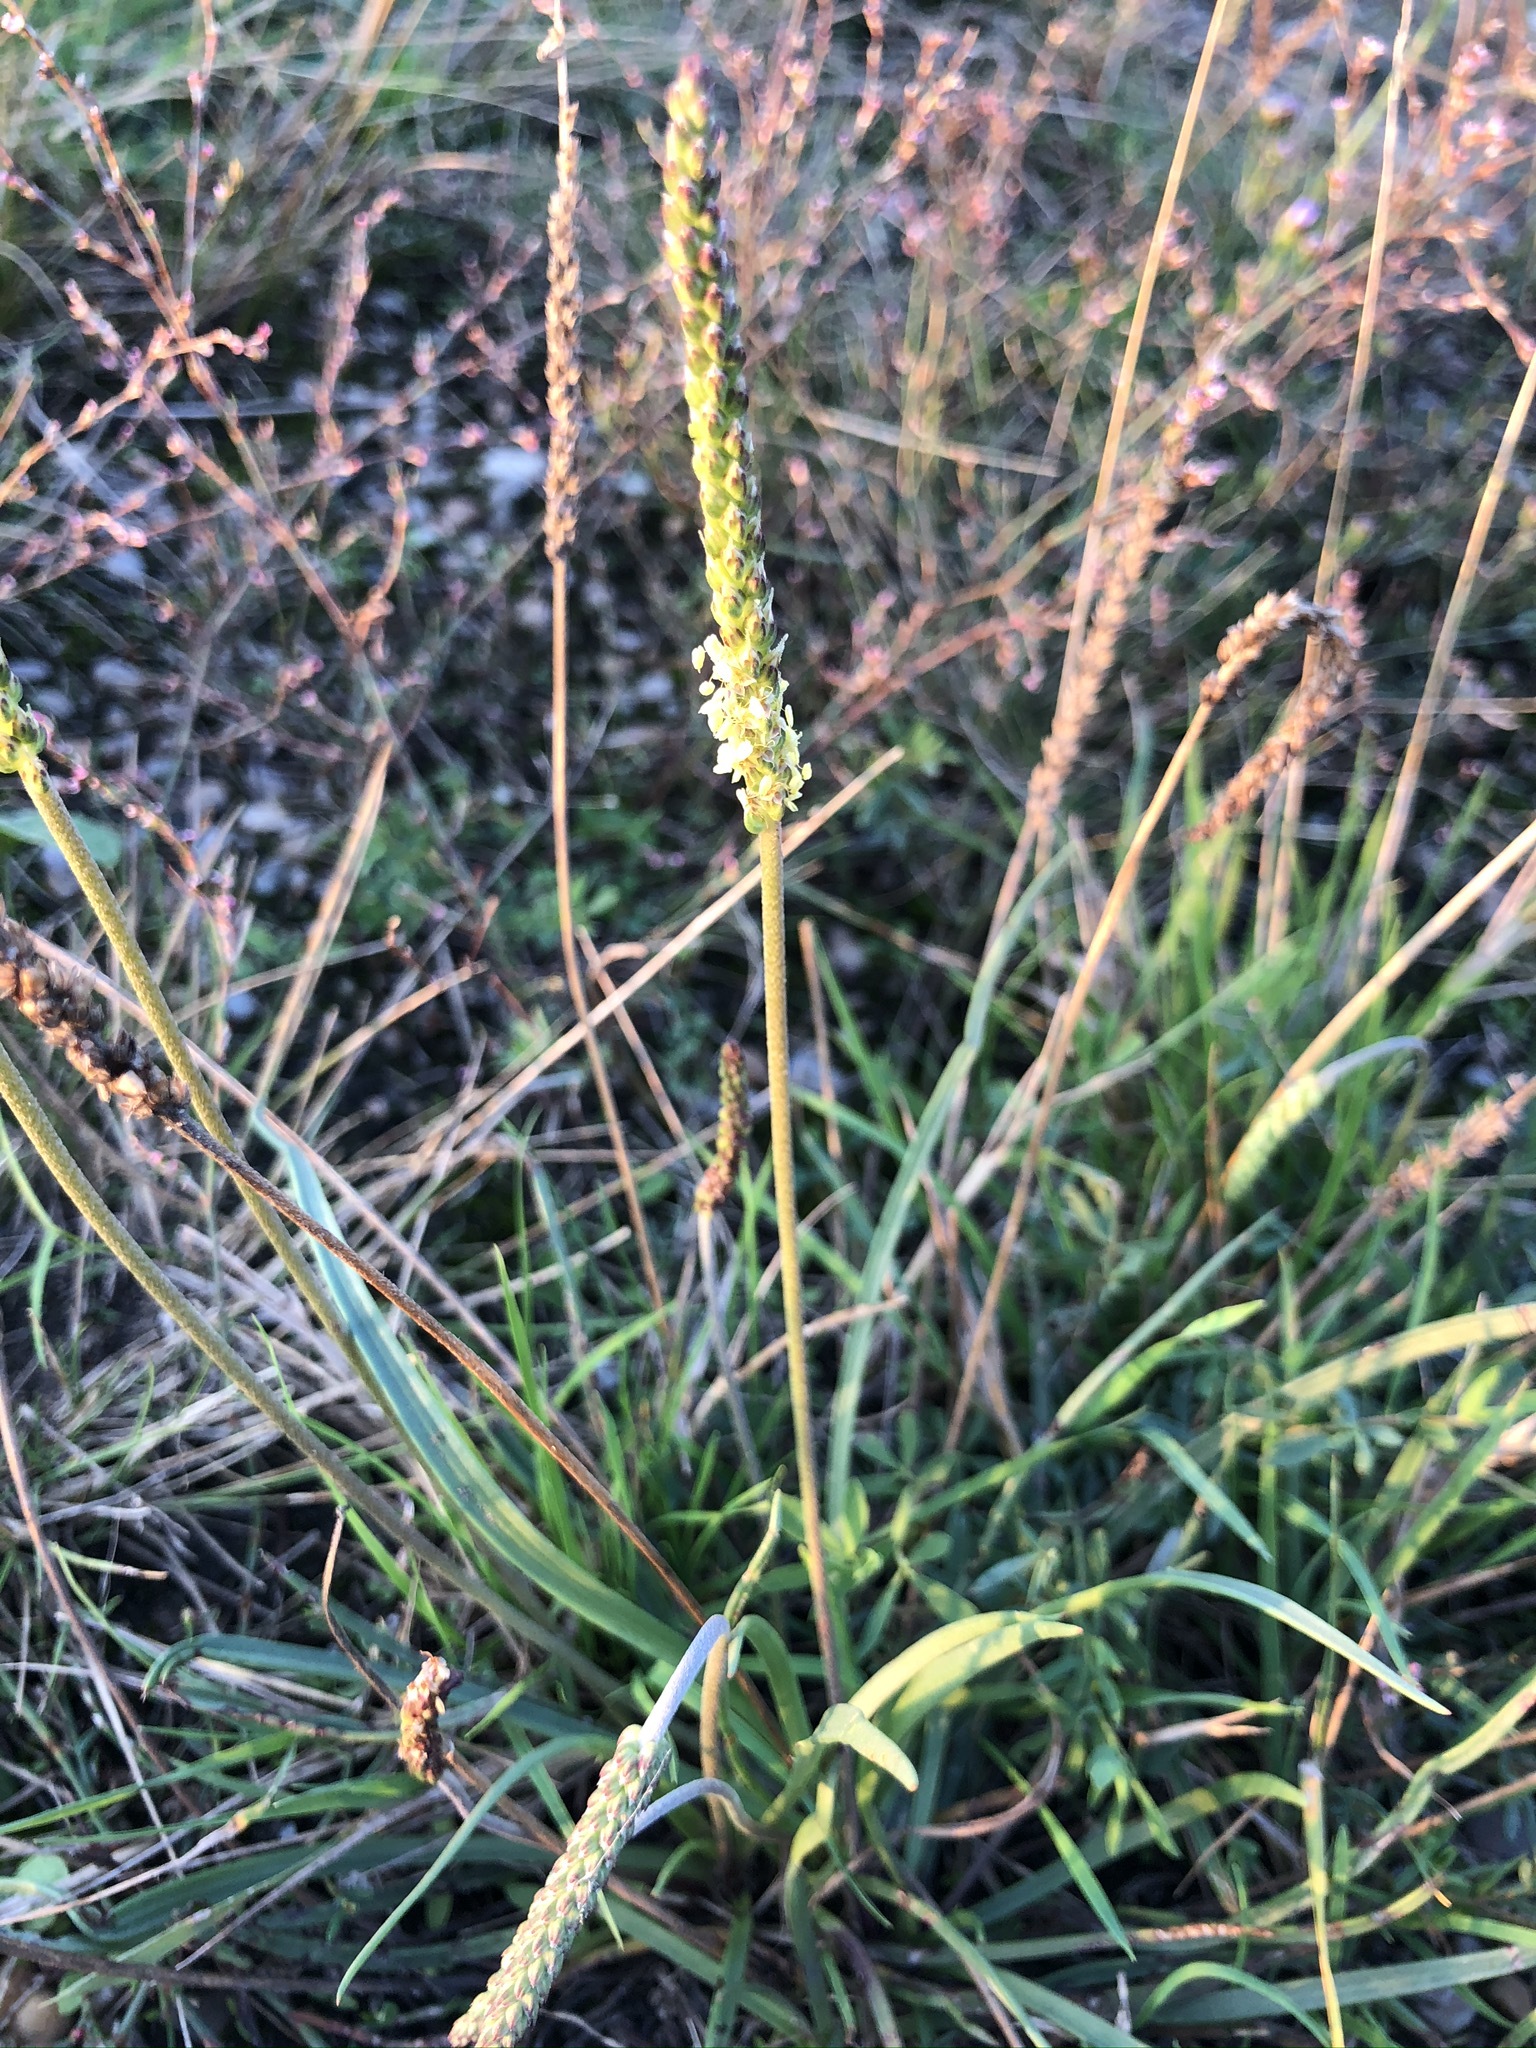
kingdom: Plantae
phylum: Tracheophyta
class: Magnoliopsida
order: Lamiales
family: Plantaginaceae
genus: Plantago
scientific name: Plantago maritima
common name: Sea plantain
